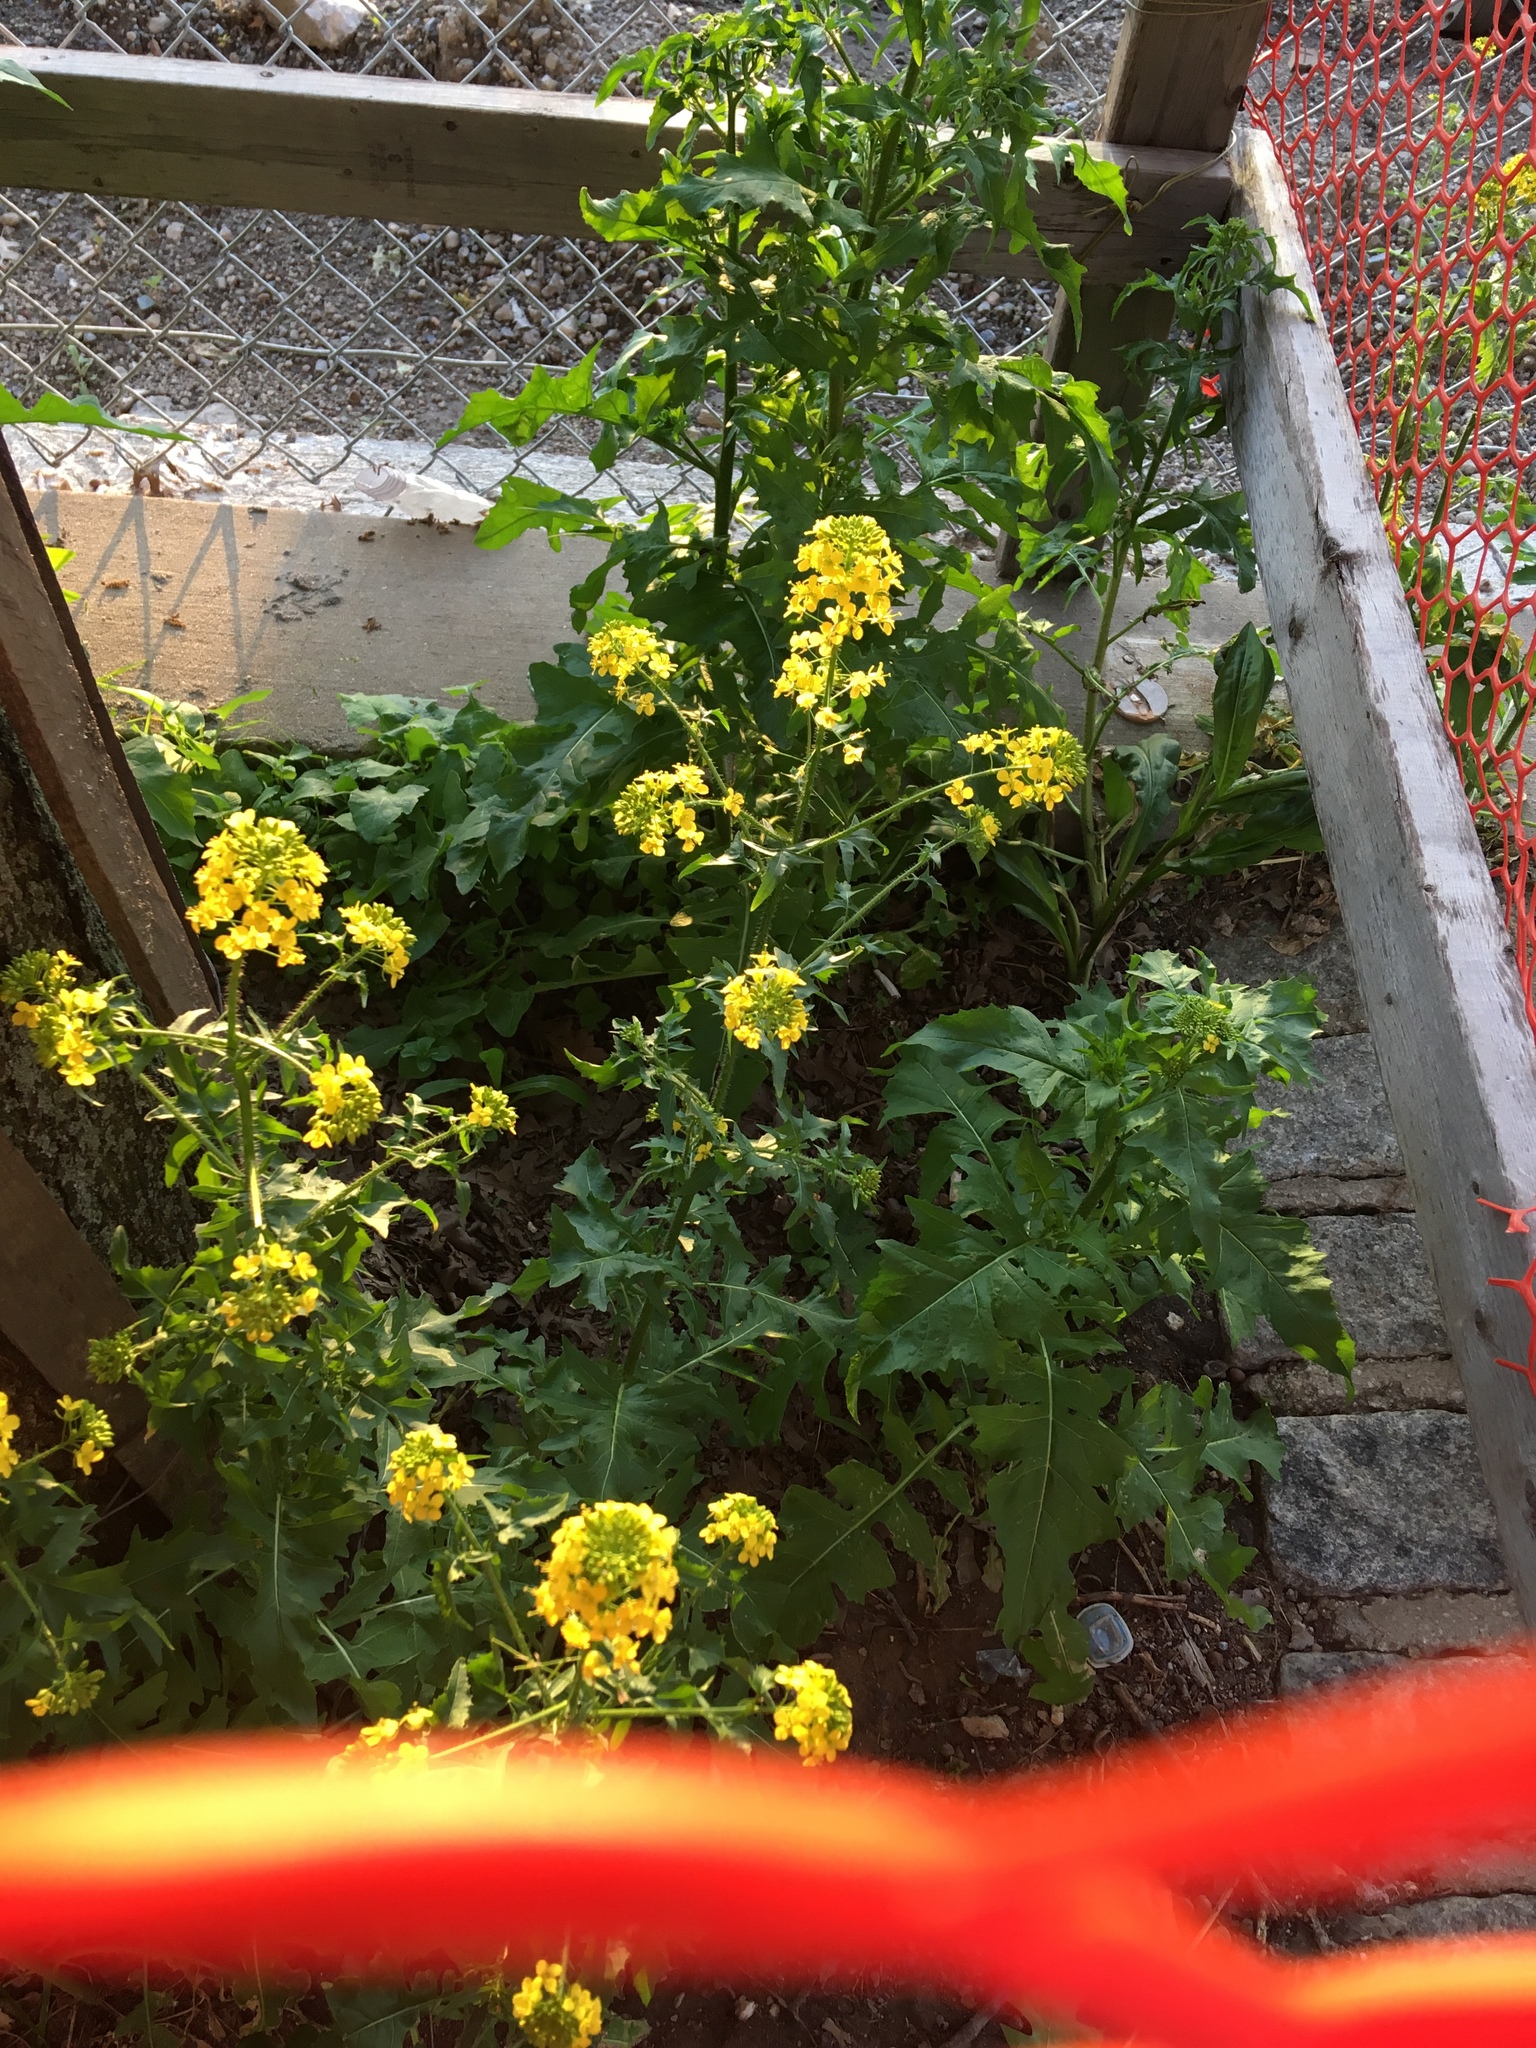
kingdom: Plantae
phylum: Tracheophyta
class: Magnoliopsida
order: Brassicales
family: Brassicaceae
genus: Sisymbrium
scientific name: Sisymbrium loeselii
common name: False london-rocket
